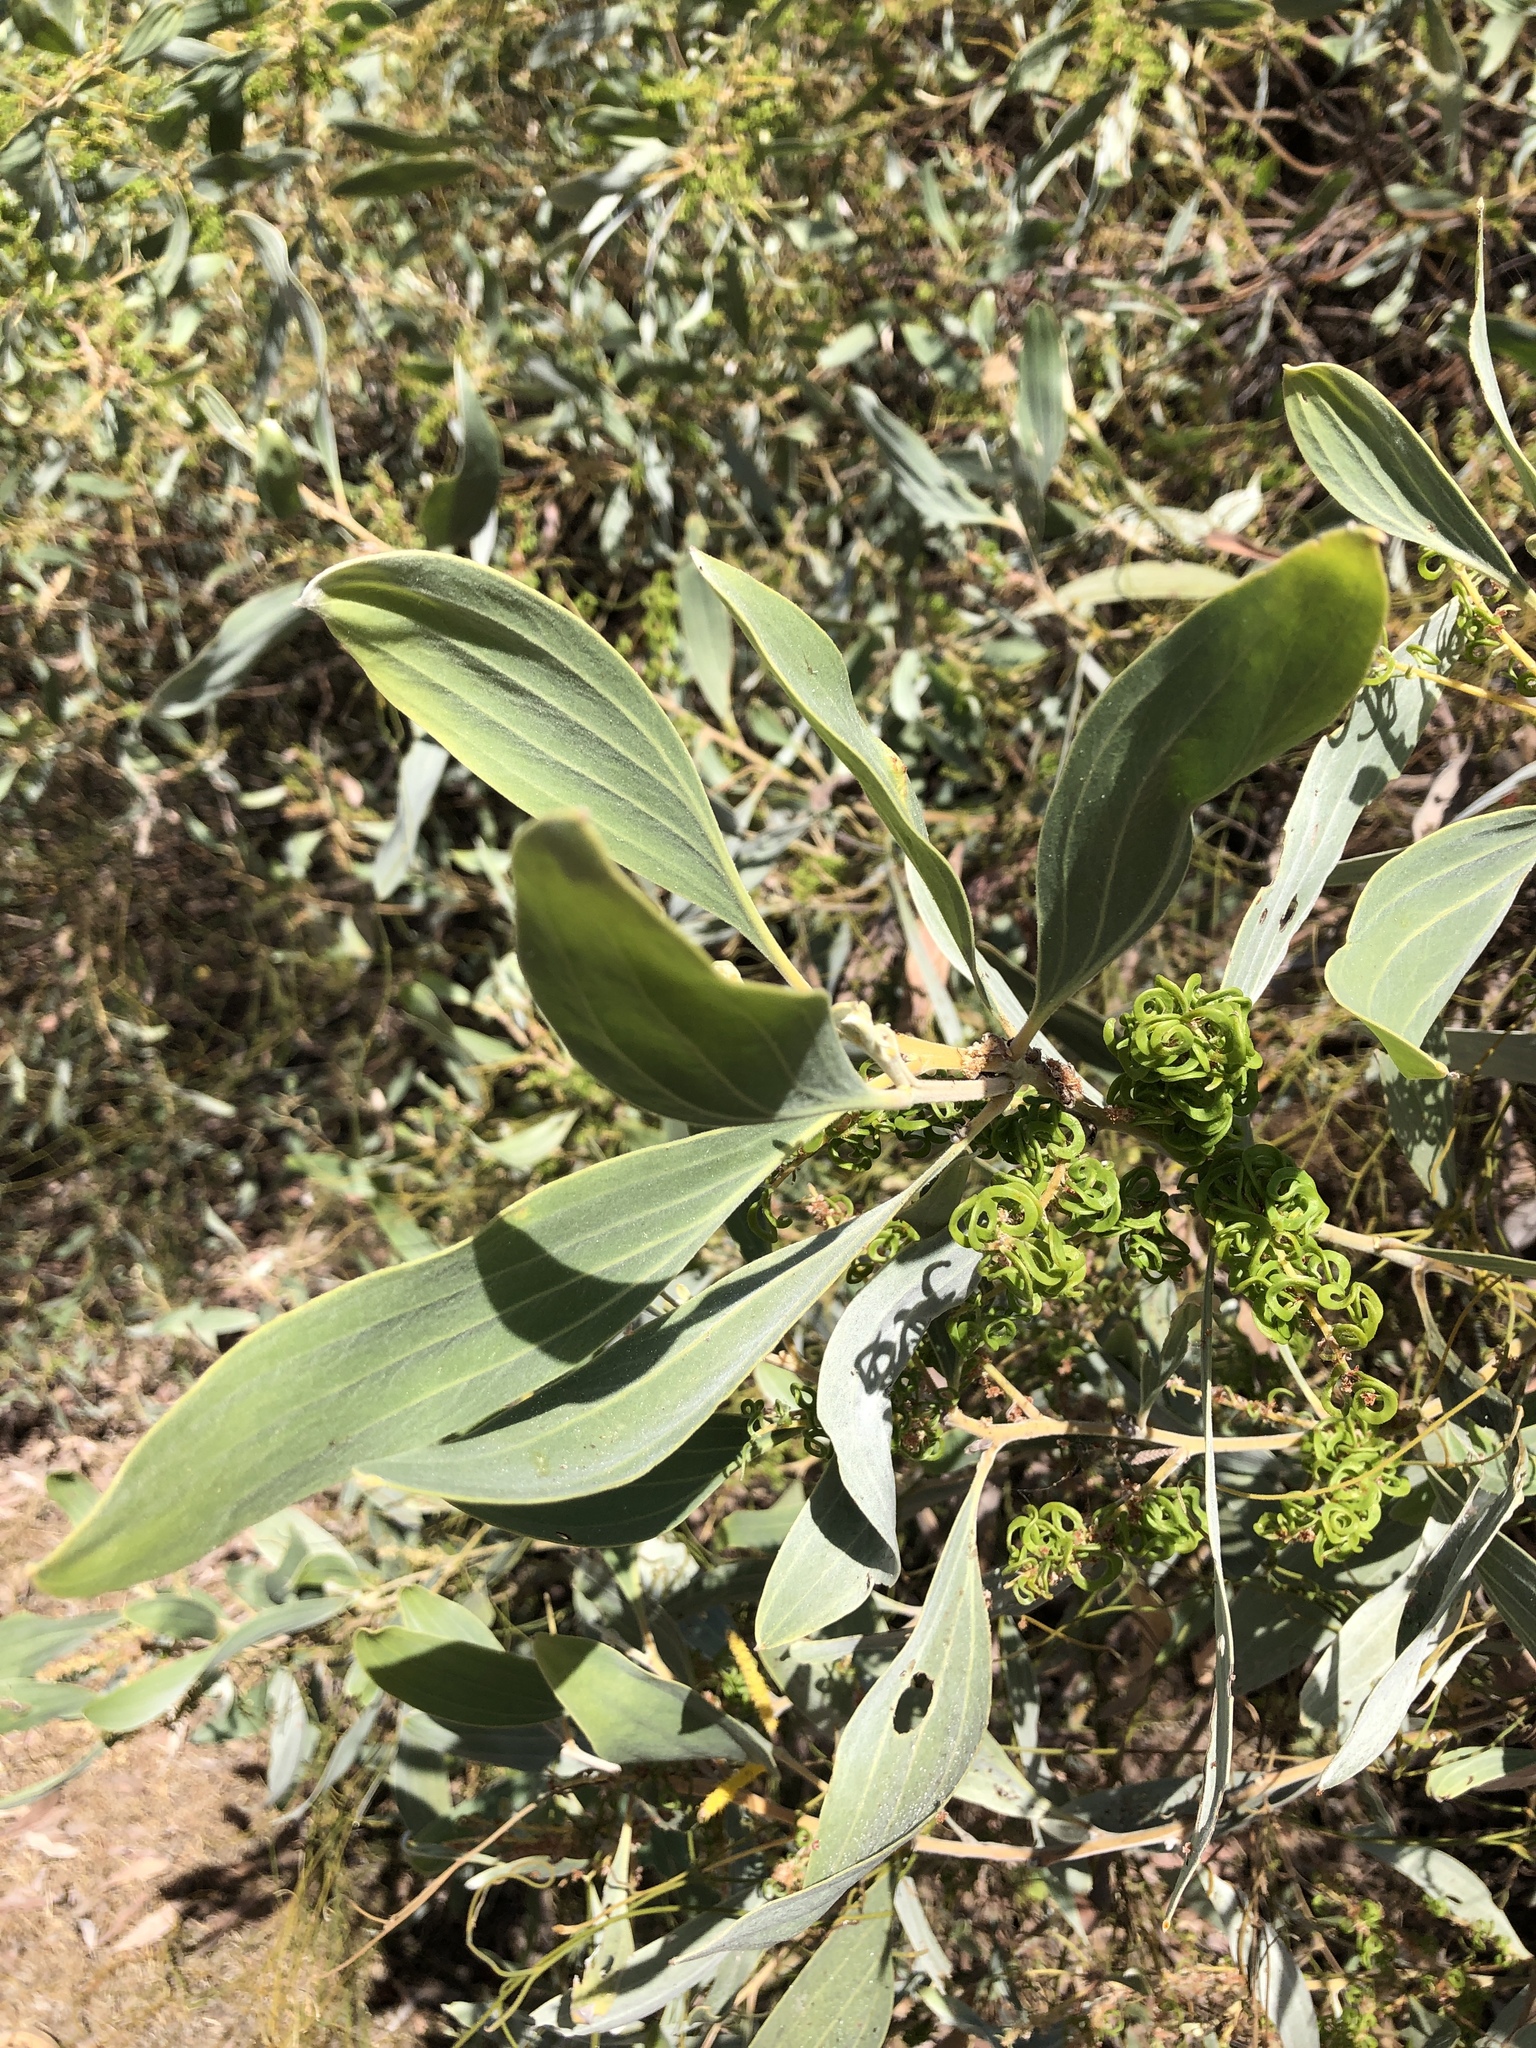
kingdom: Plantae
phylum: Tracheophyta
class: Magnoliopsida
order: Fabales
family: Fabaceae
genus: Acacia
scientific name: Acacia holosericea
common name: Candelabra wattle
